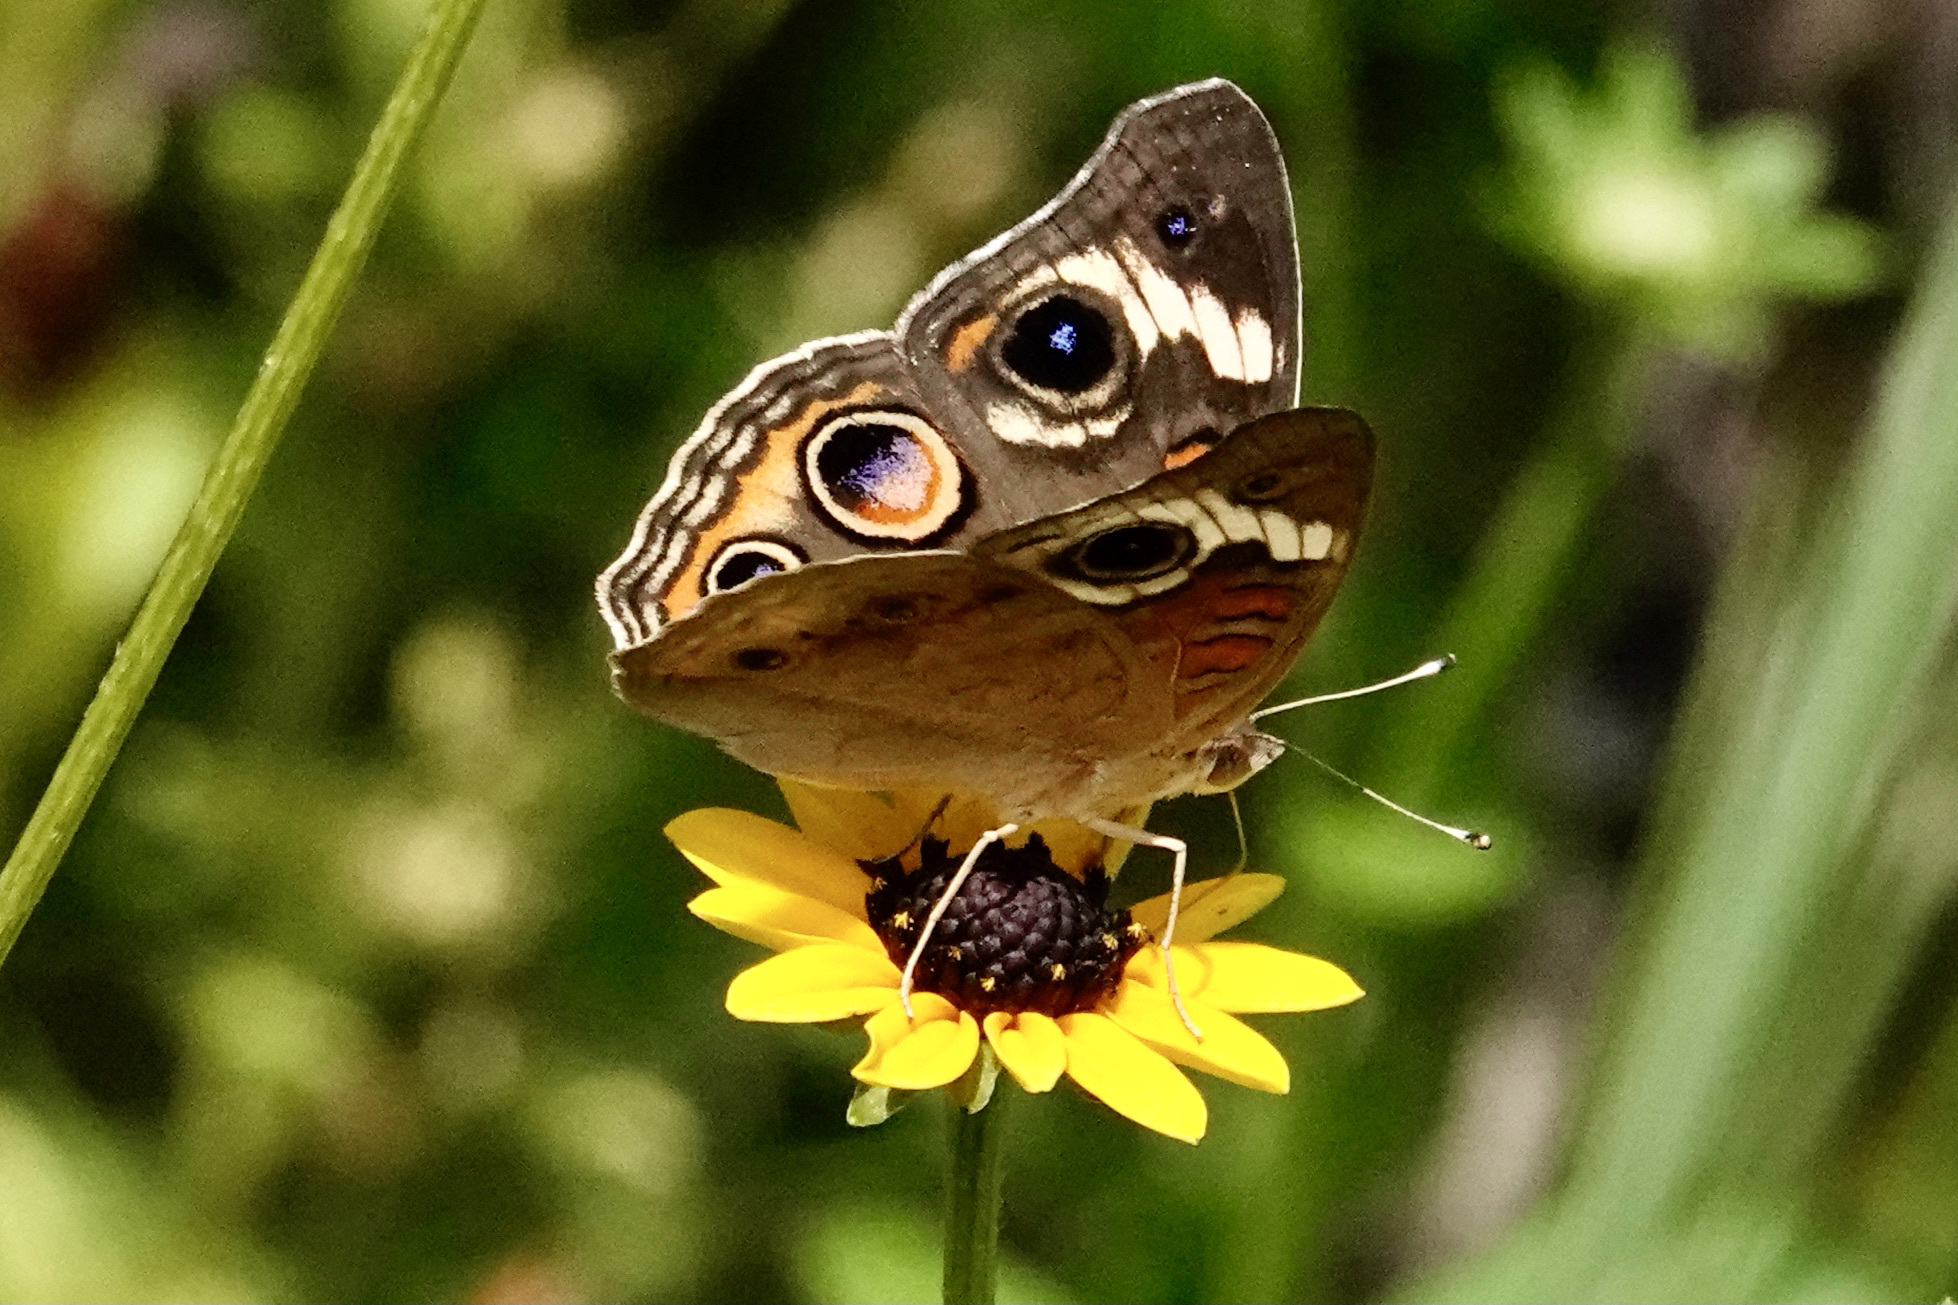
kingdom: Animalia
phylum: Arthropoda
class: Insecta
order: Lepidoptera
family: Nymphalidae
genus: Junonia
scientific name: Junonia coenia
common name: Common buckeye
